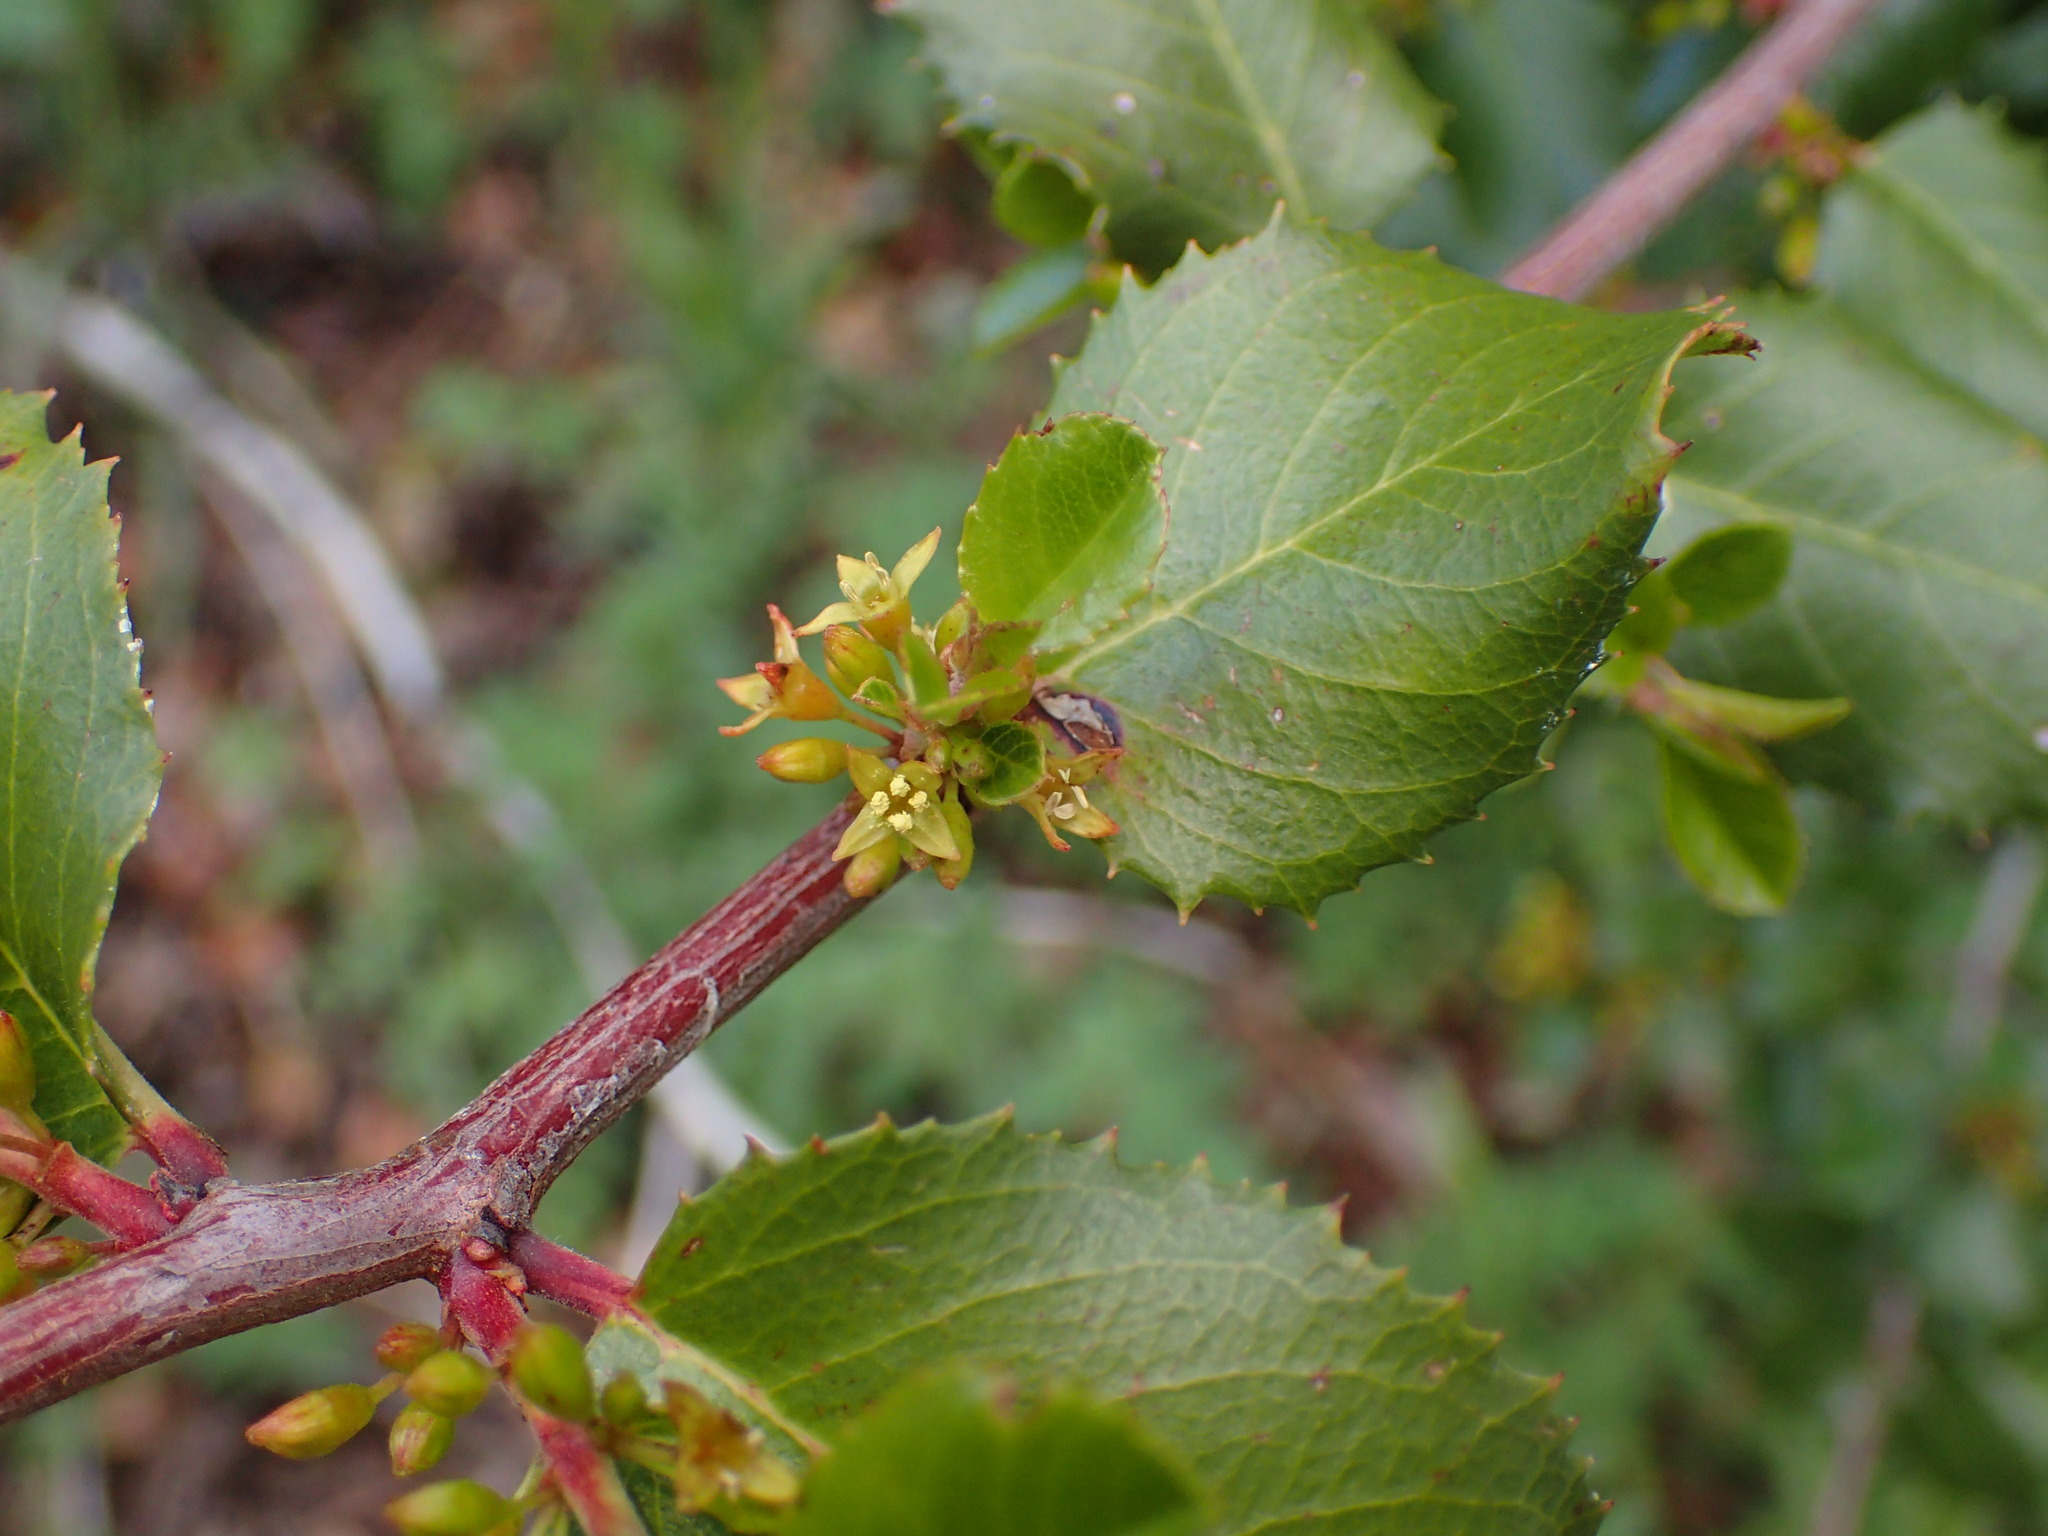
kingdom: Plantae
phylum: Tracheophyta
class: Magnoliopsida
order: Rosales
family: Rhamnaceae
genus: Endotropis
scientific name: Endotropis crocea
